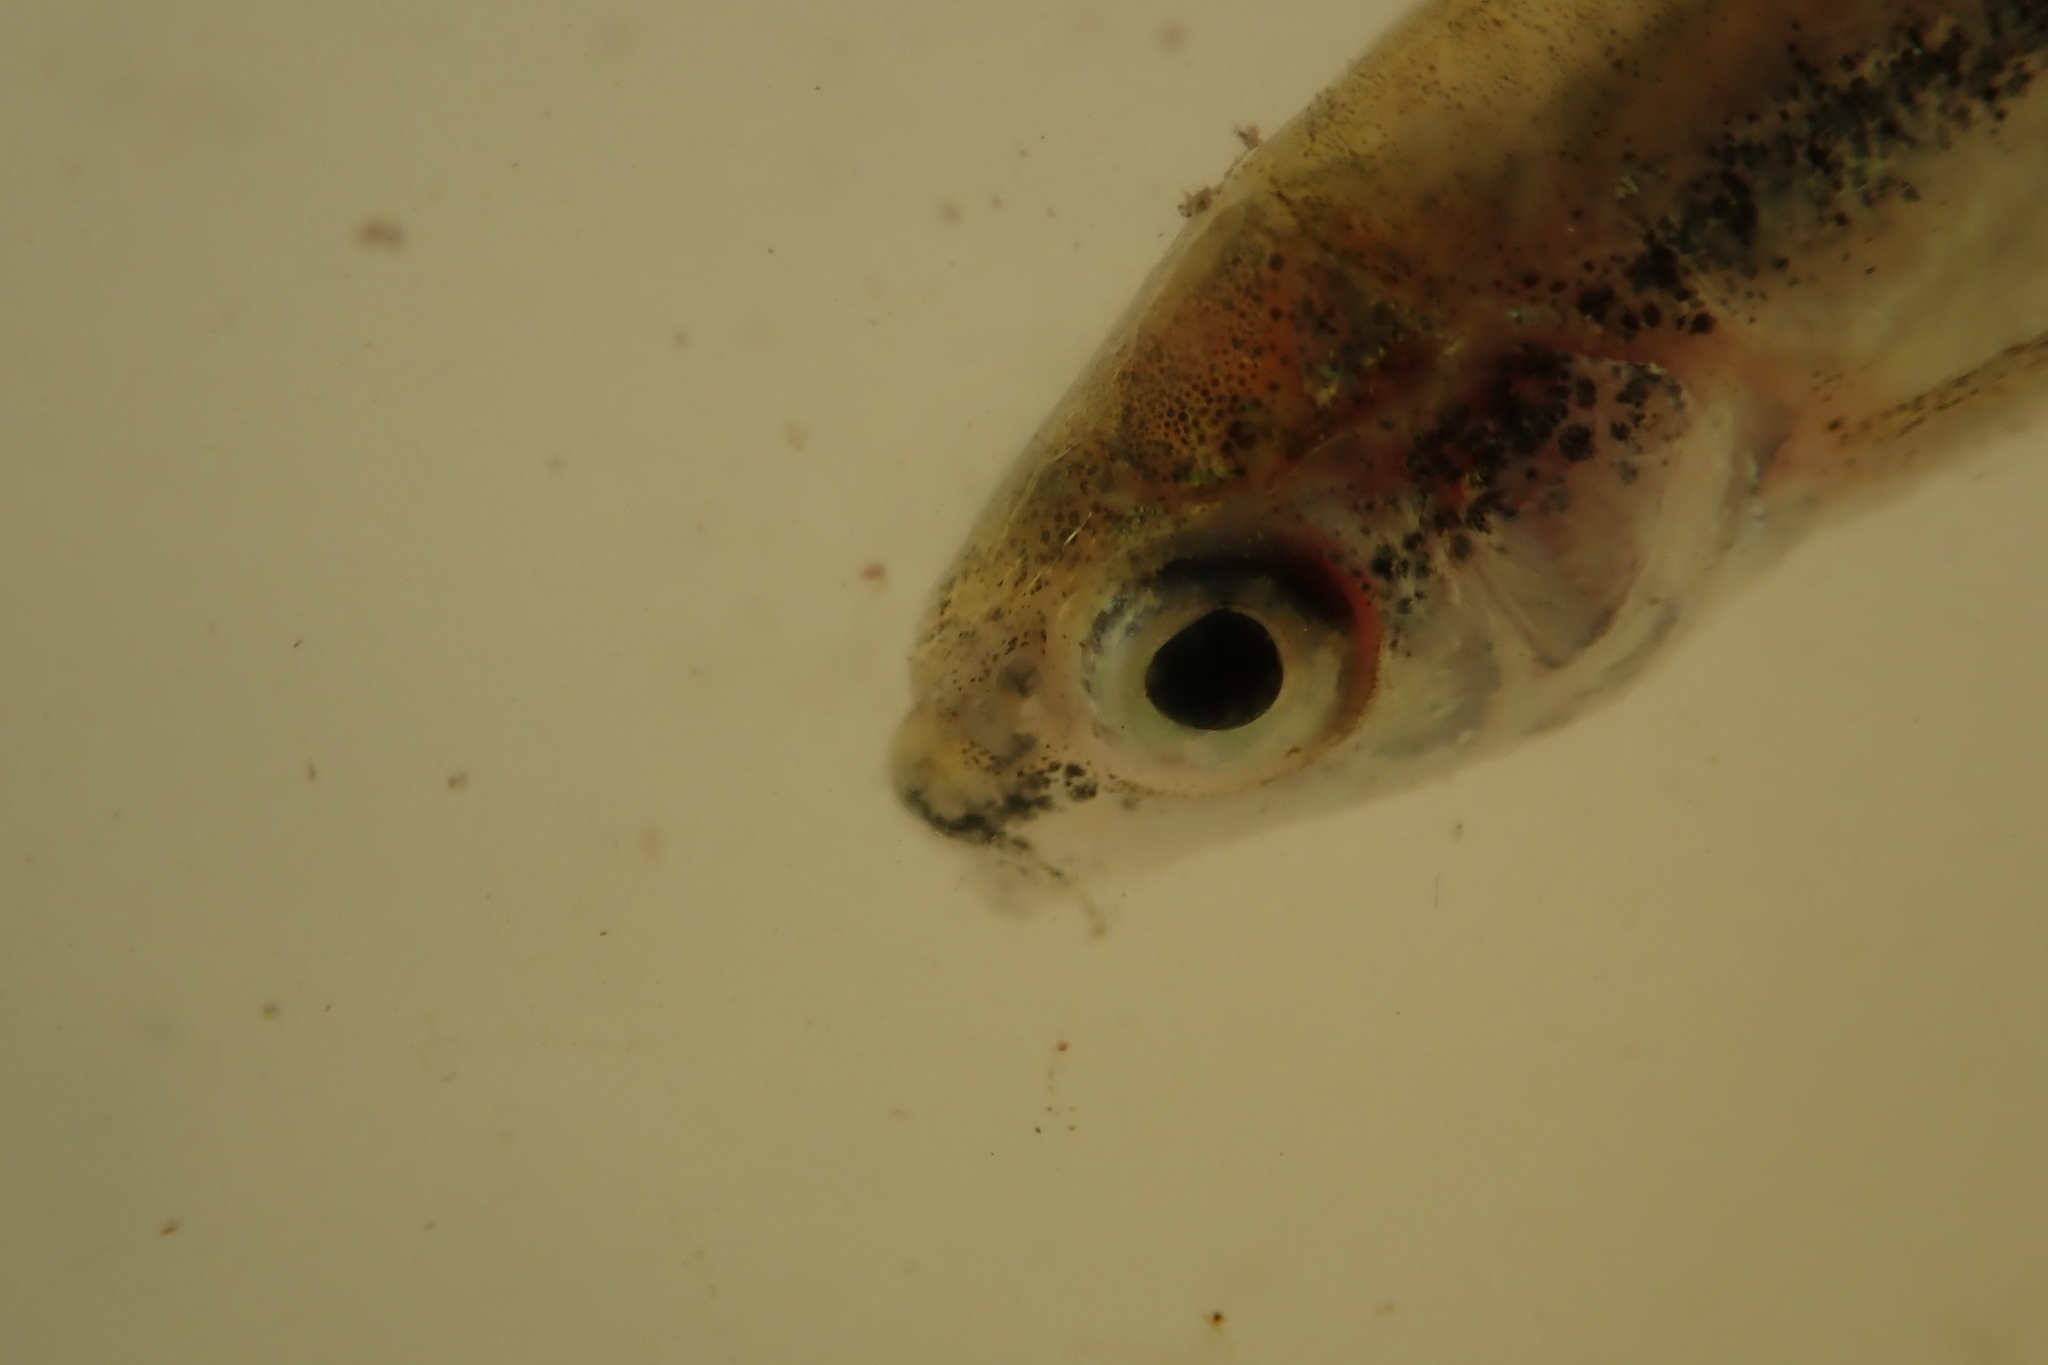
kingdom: Animalia
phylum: Chordata
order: Cypriniformes
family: Cyprinidae
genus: Enteromius
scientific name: Enteromius toppini
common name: East coast barb
